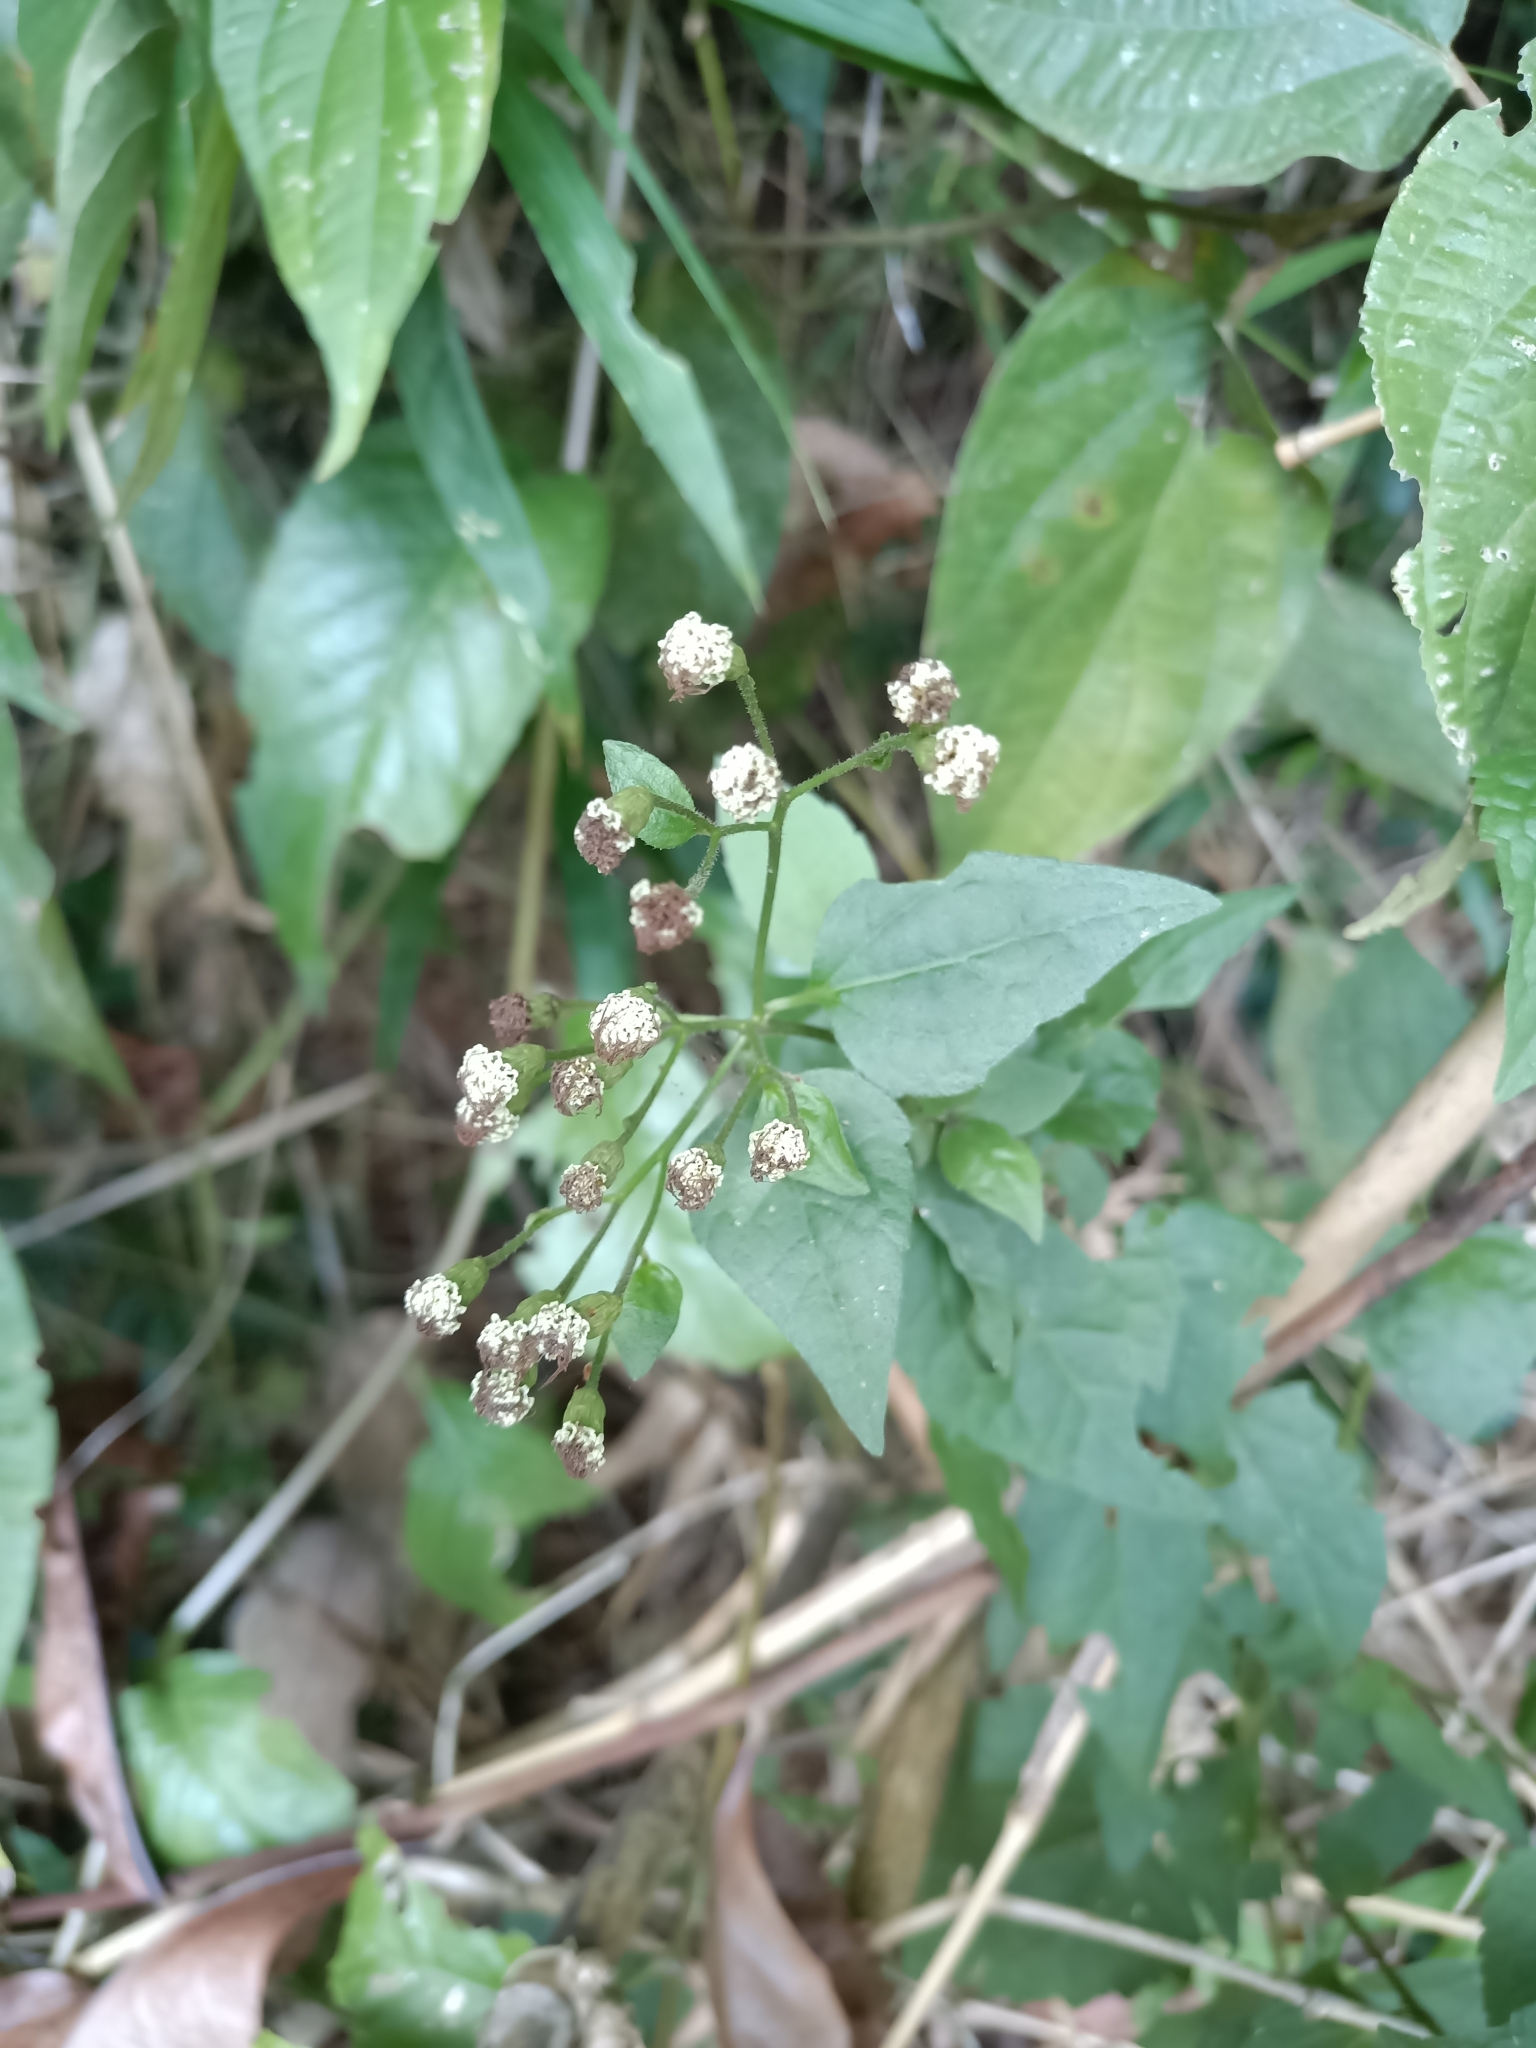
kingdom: Plantae
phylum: Tracheophyta
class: Magnoliopsida
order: Asterales
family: Asteraceae
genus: Chromolaena
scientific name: Chromolaena odorata
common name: Siamweed
